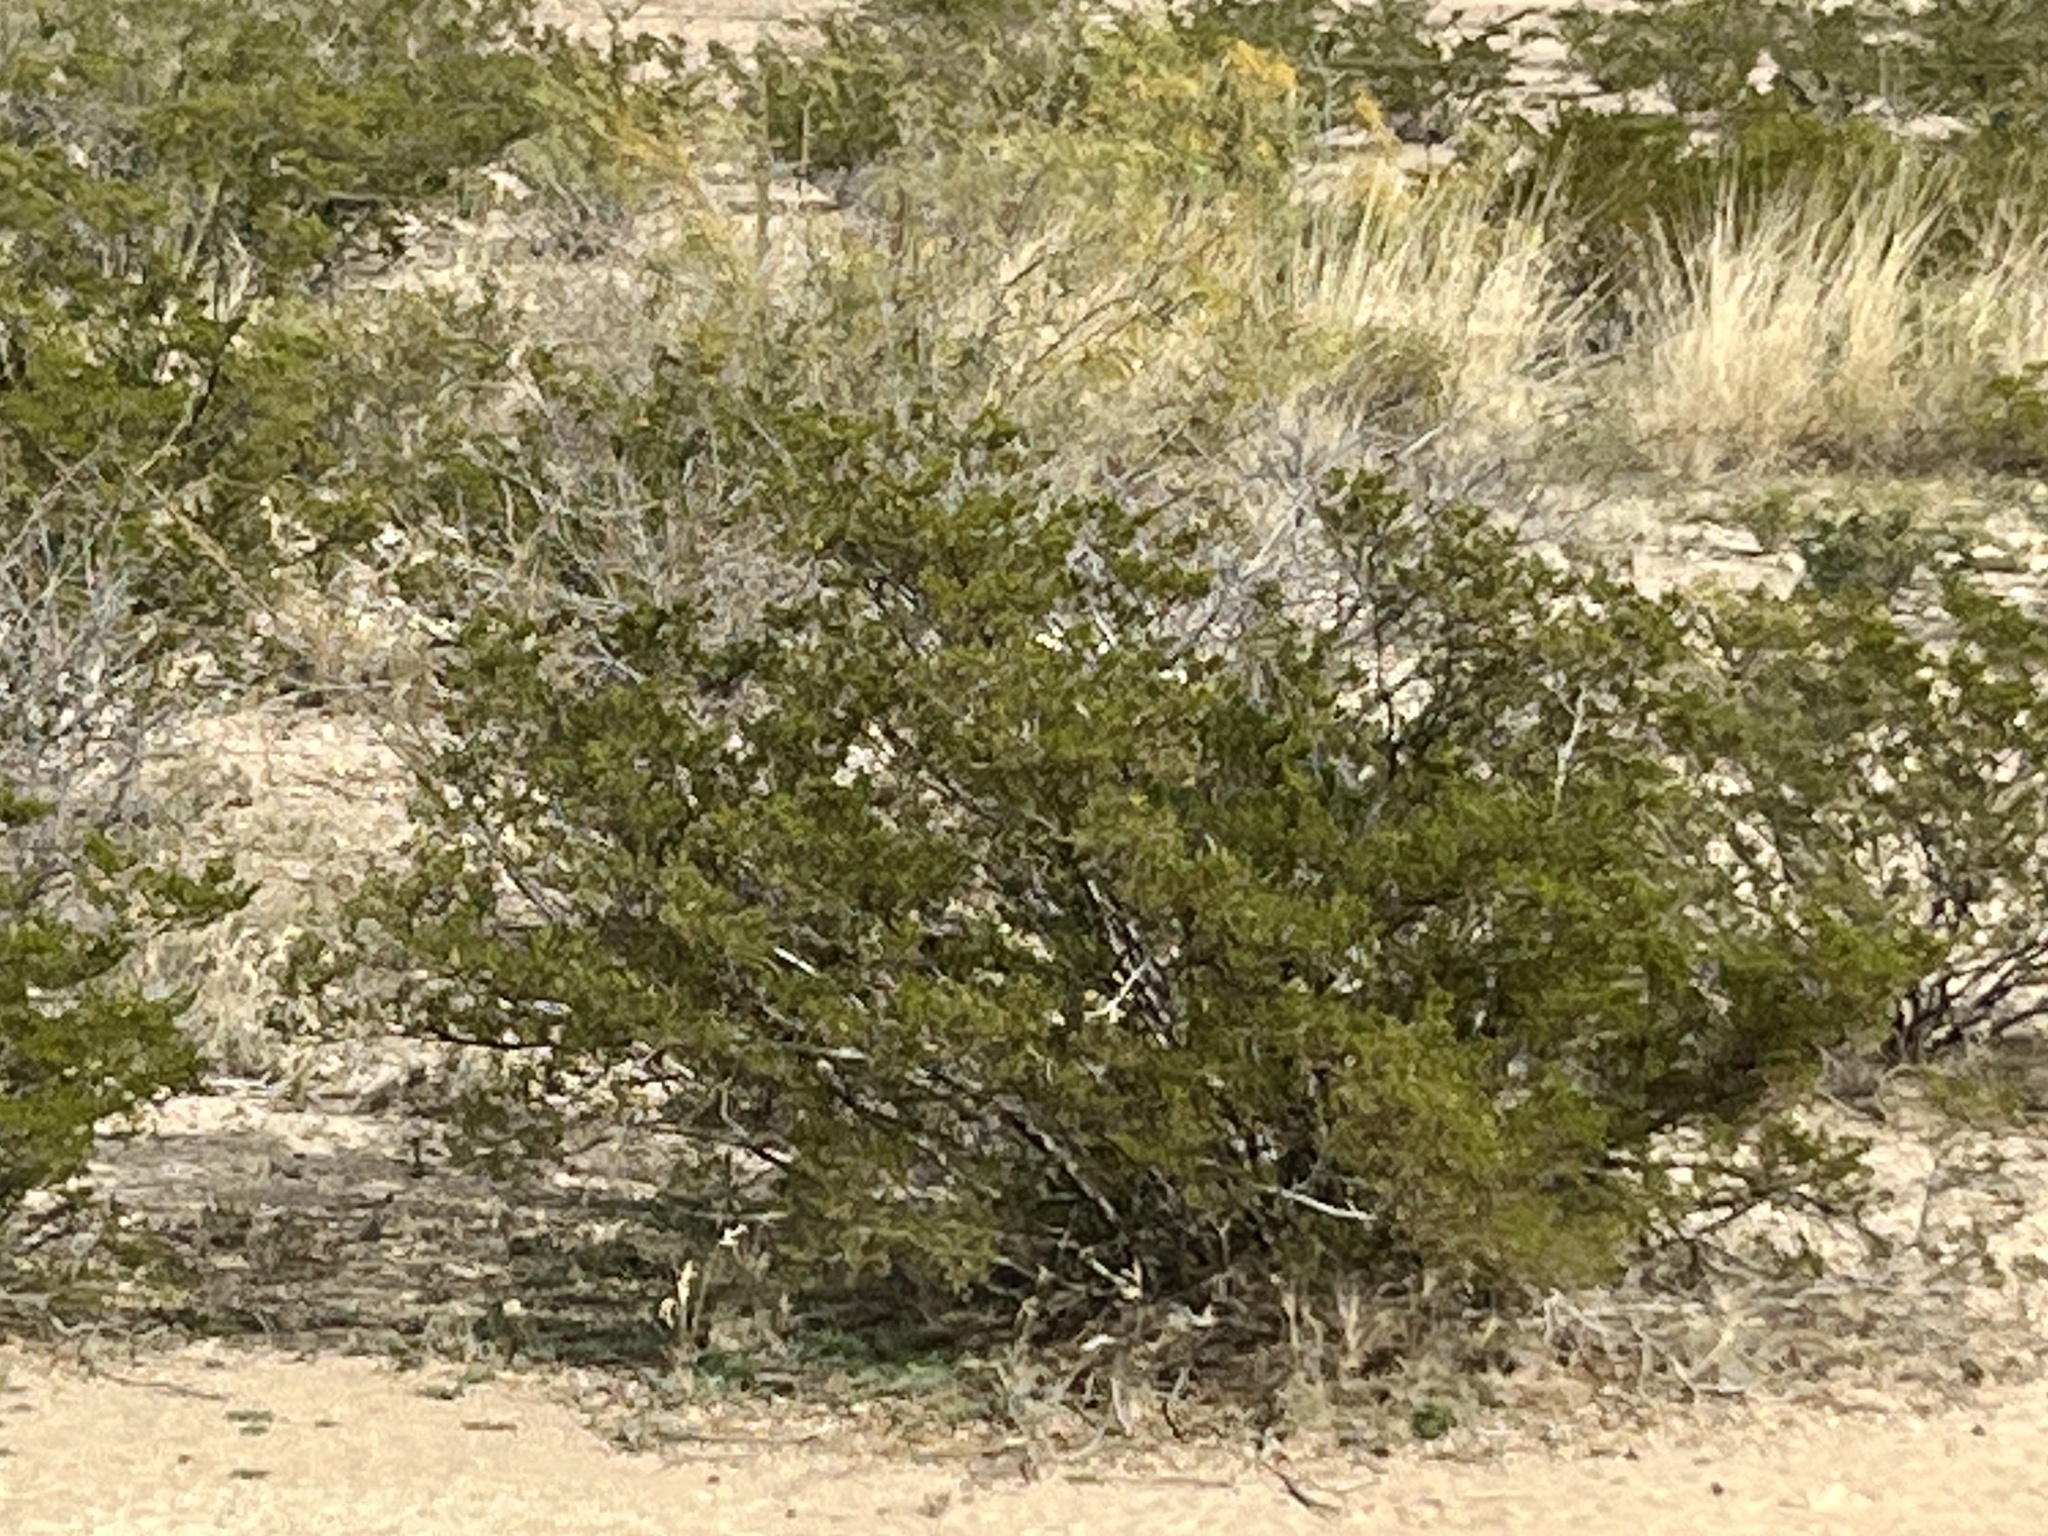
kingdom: Plantae
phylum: Tracheophyta
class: Magnoliopsida
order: Zygophyllales
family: Zygophyllaceae
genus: Larrea
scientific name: Larrea tridentata
